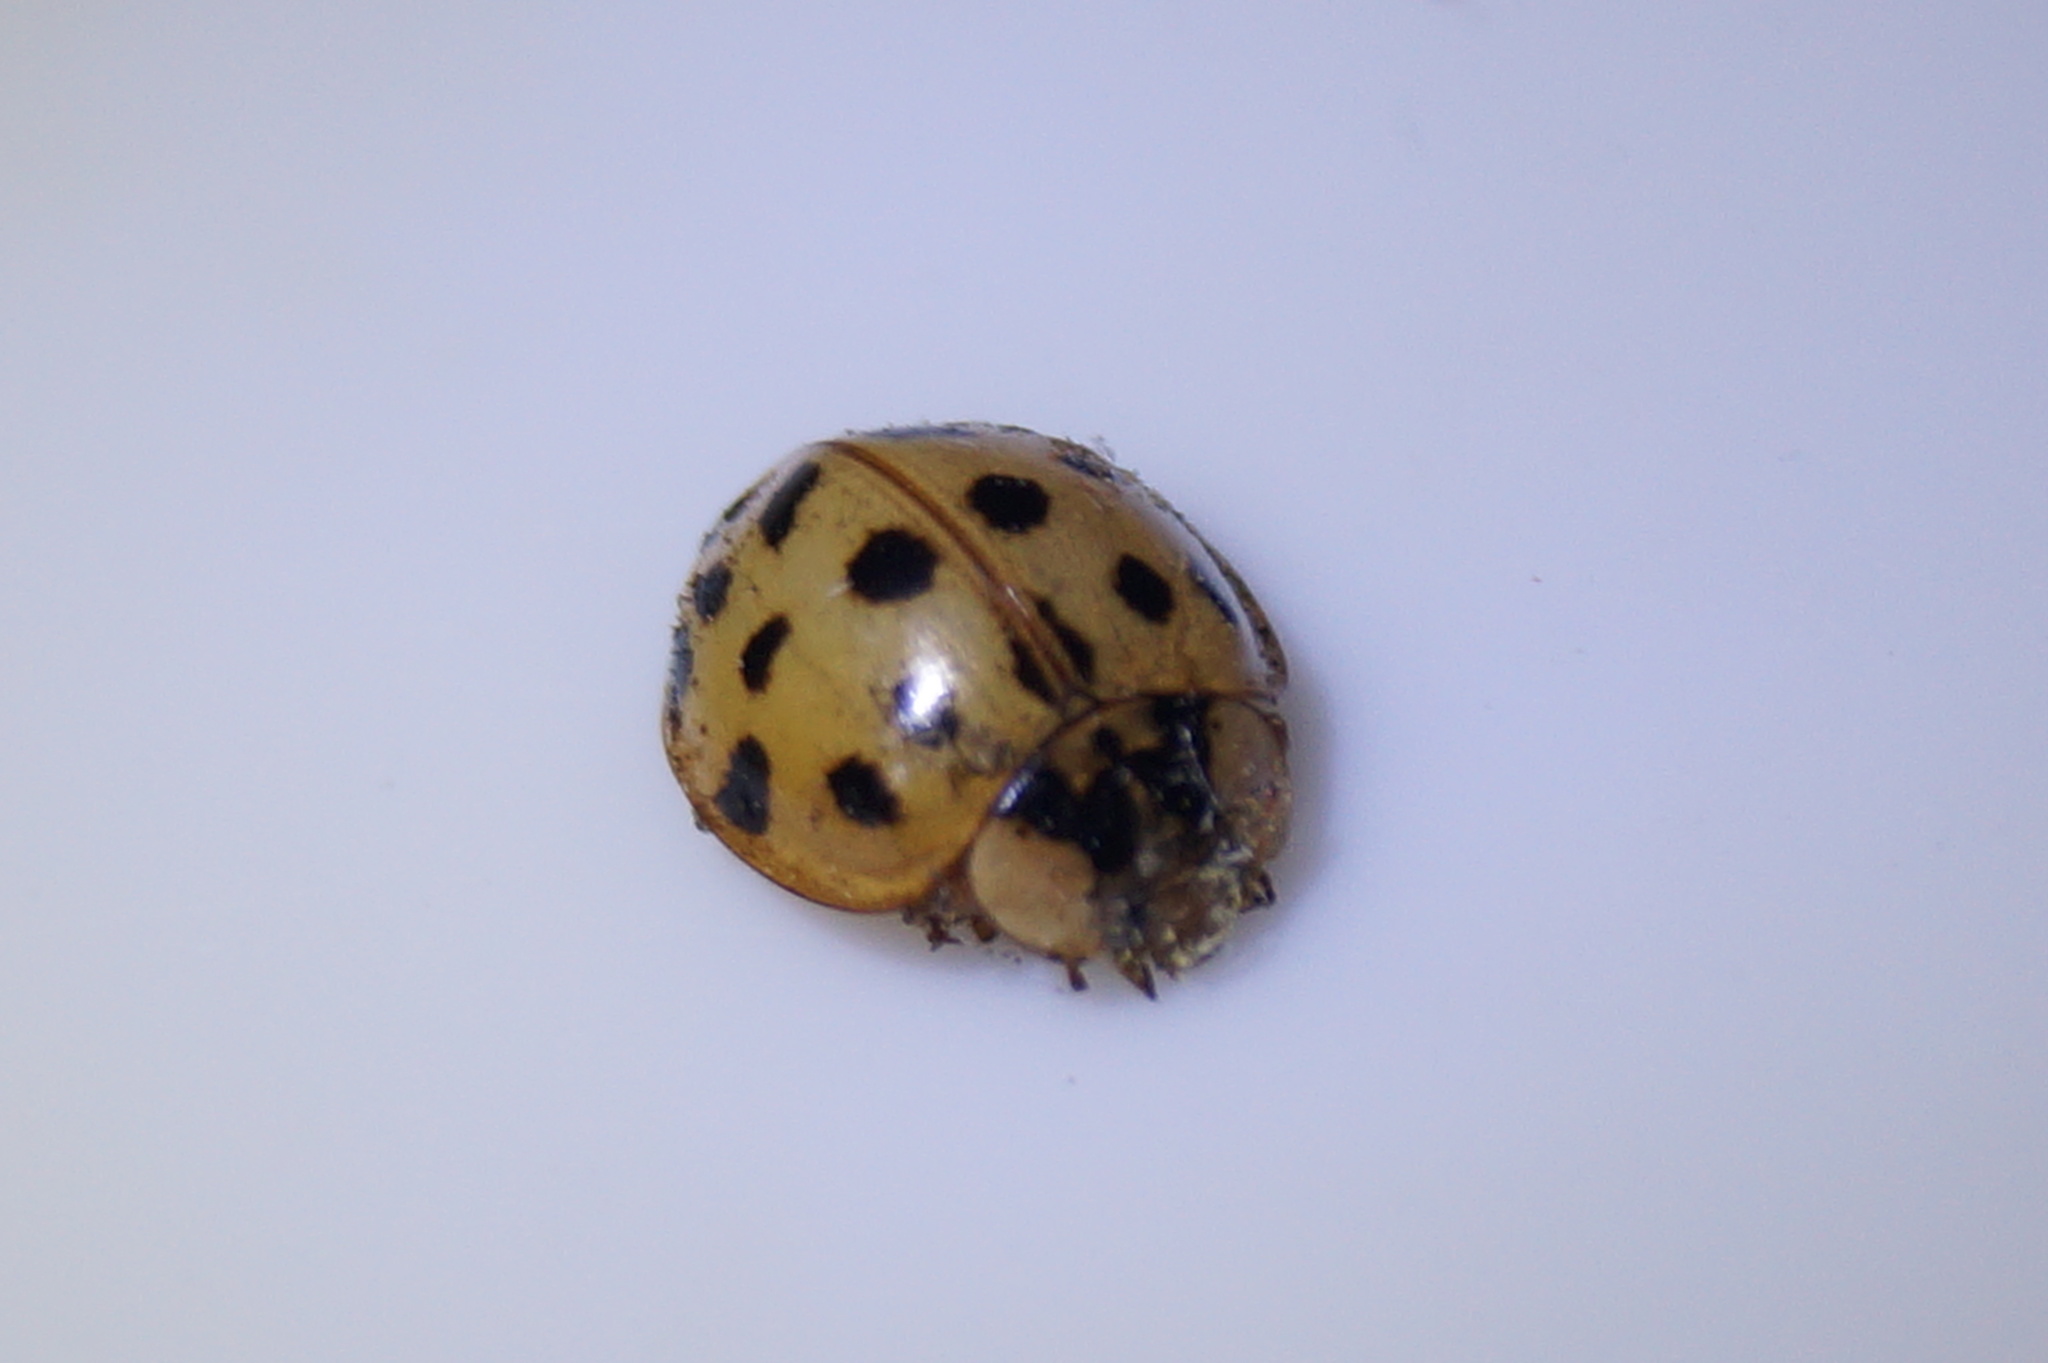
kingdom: Animalia
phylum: Arthropoda
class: Insecta
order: Coleoptera
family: Coccinellidae
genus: Harmonia
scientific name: Harmonia axyridis
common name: Harlequin ladybird
